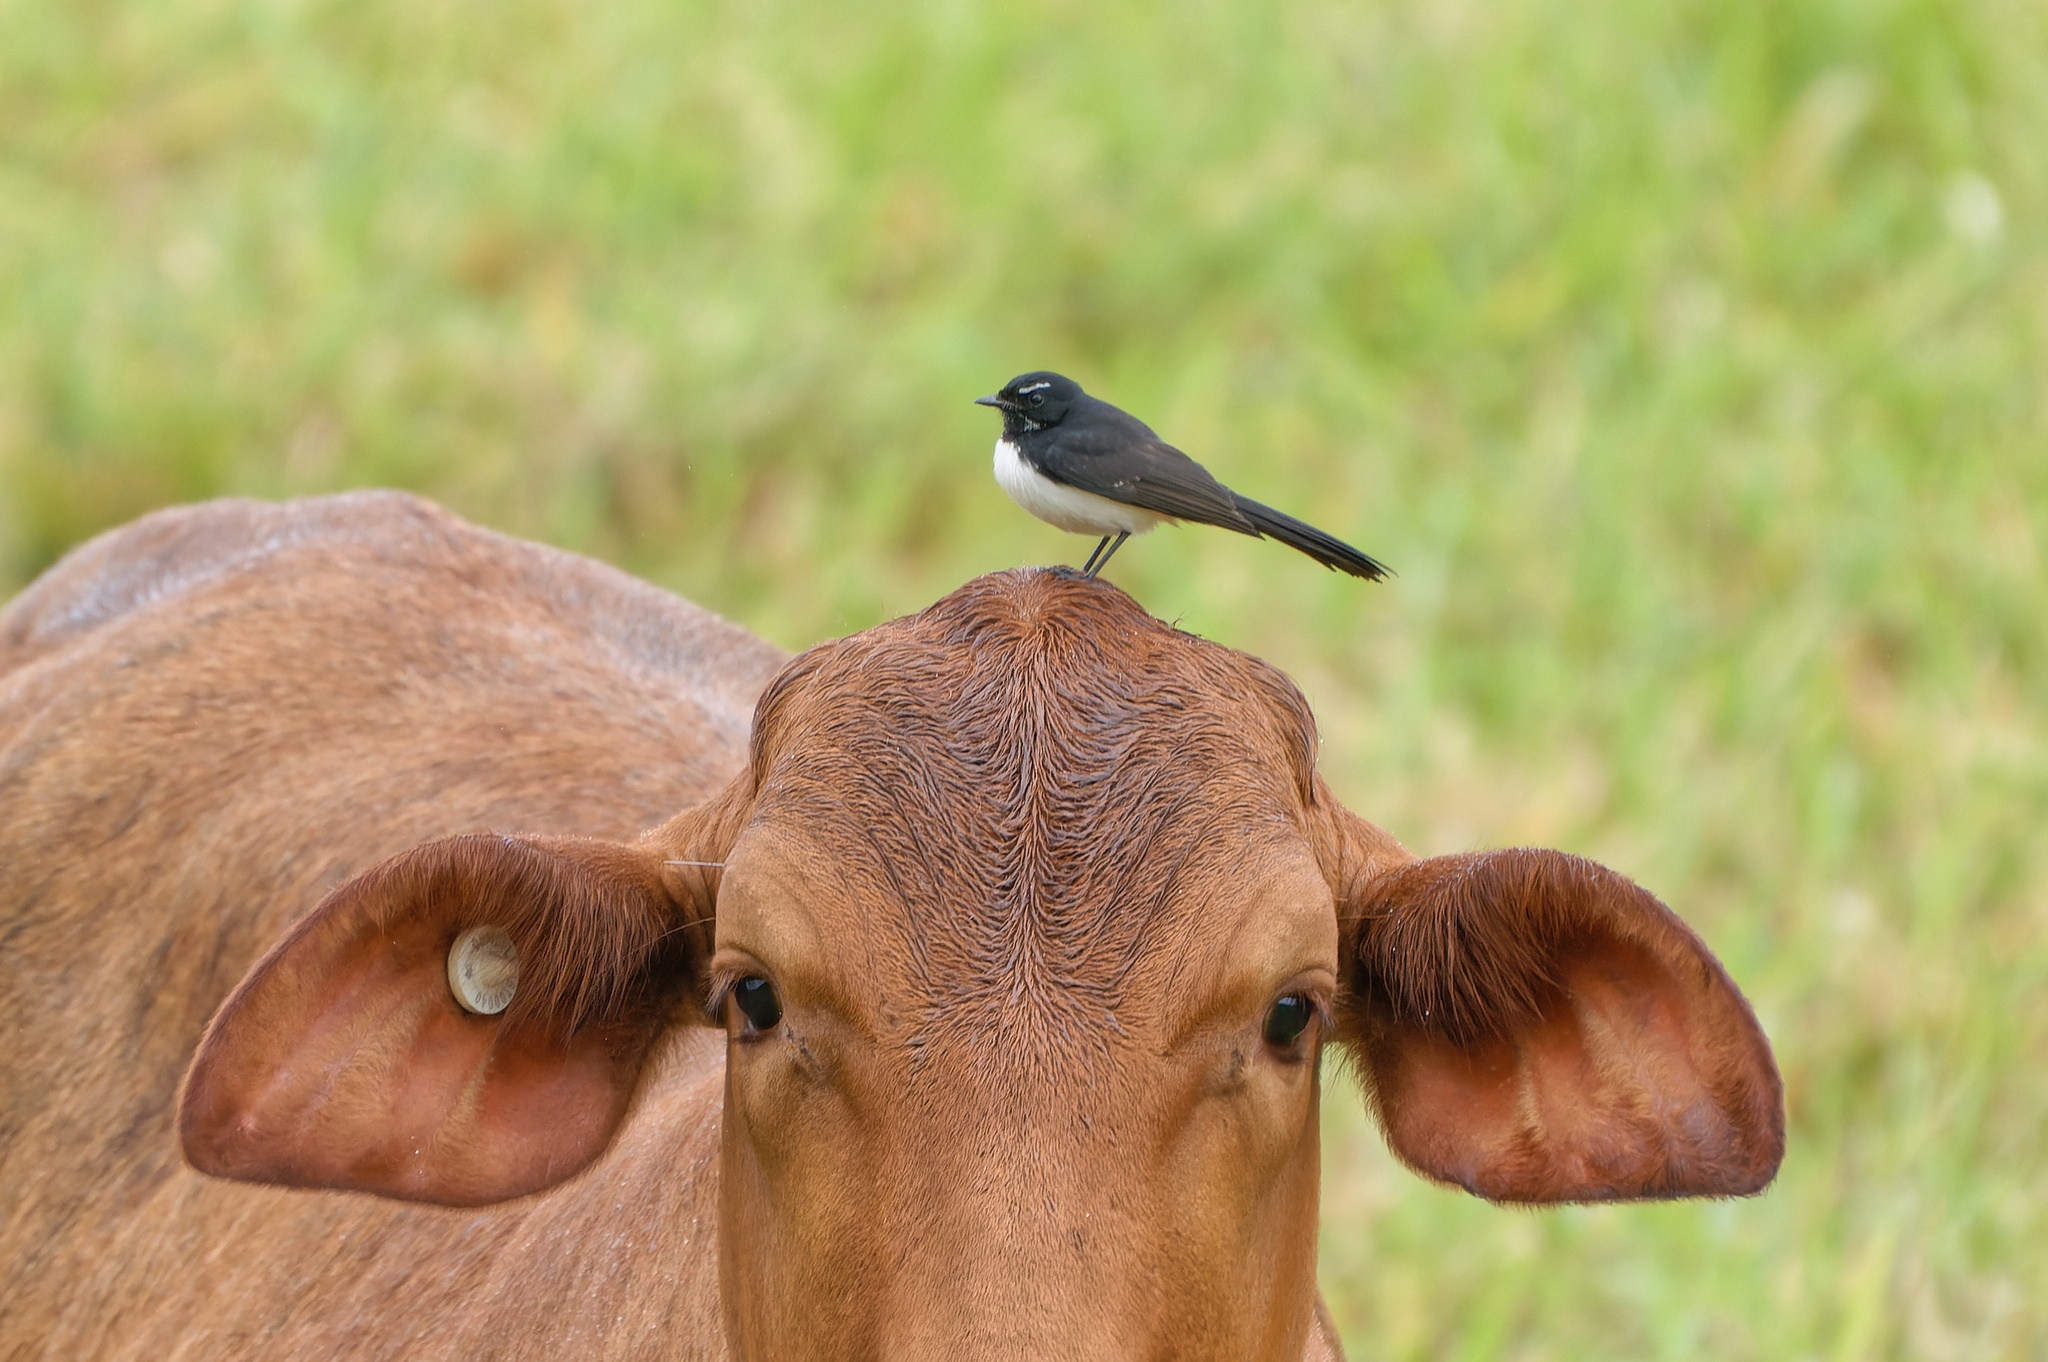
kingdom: Animalia
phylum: Chordata
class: Aves
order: Passeriformes
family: Rhipiduridae
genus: Rhipidura
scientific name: Rhipidura leucophrys
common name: Willie wagtail
